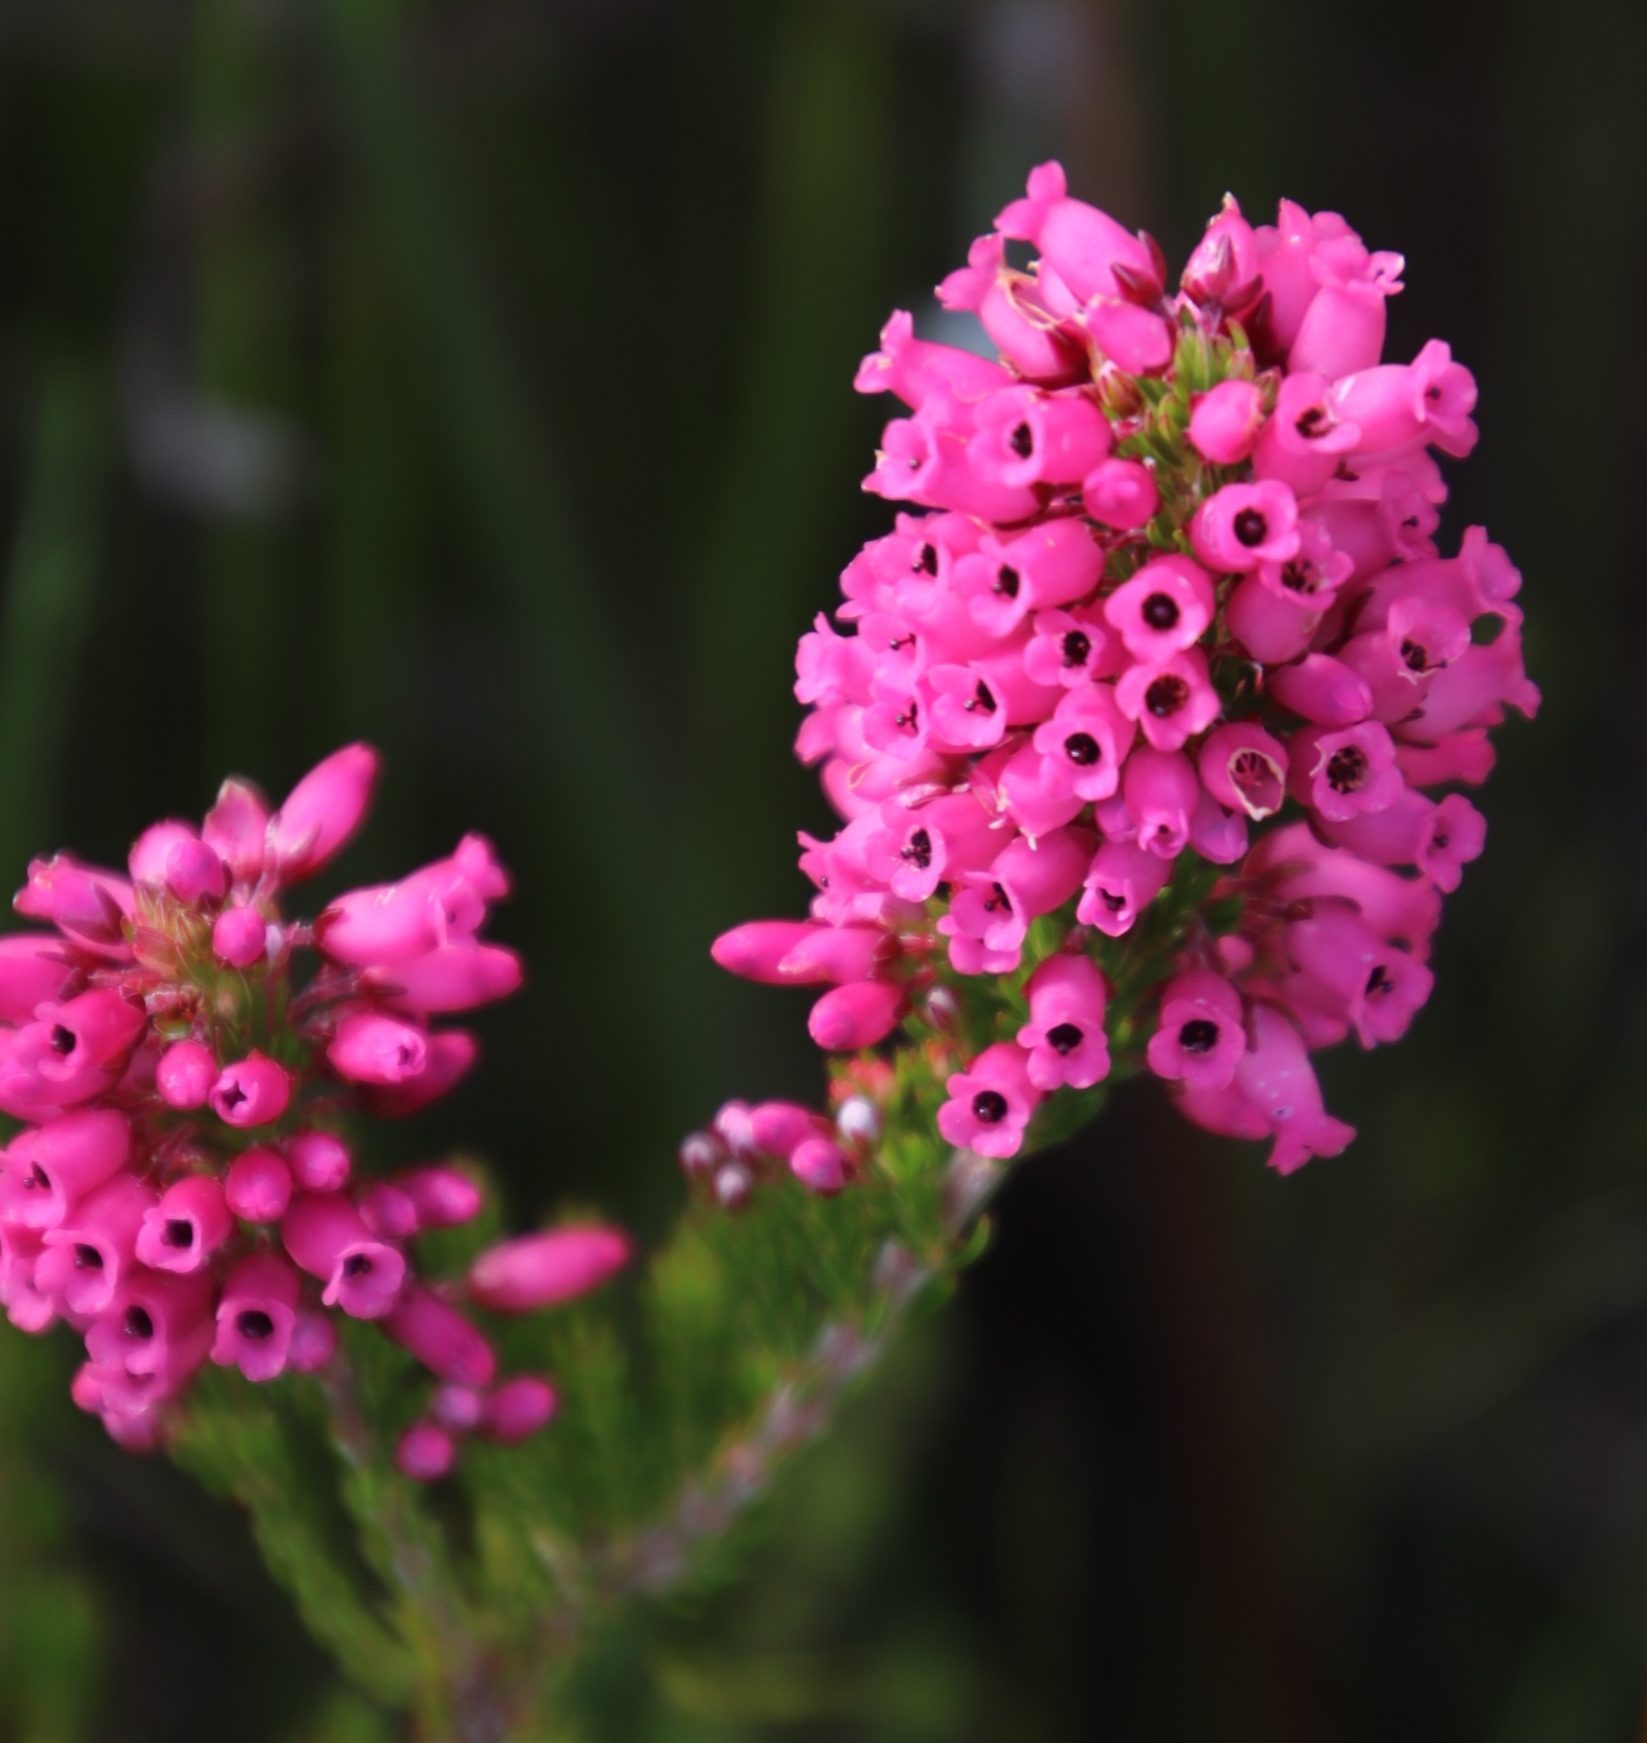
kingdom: Plantae
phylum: Tracheophyta
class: Magnoliopsida
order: Ericales
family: Ericaceae
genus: Erica
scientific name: Erica tenella
